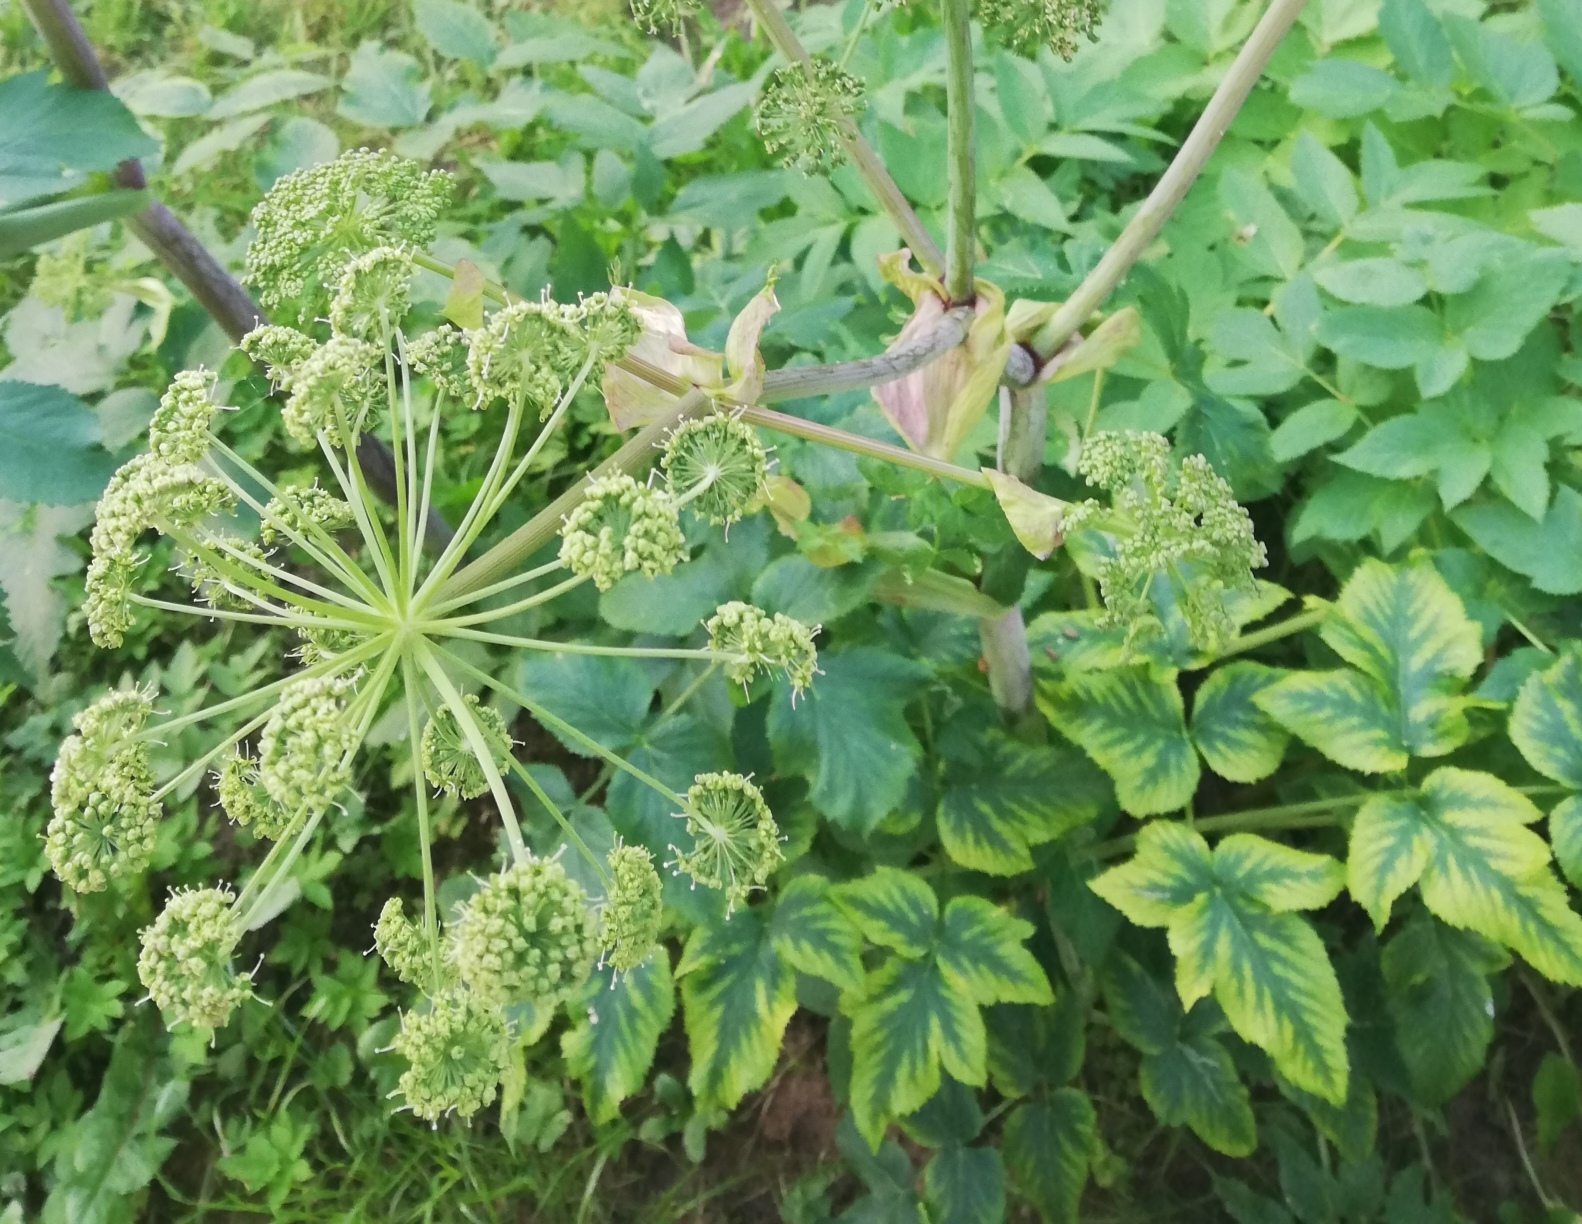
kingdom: Plantae
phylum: Tracheophyta
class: Magnoliopsida
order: Apiales
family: Apiaceae
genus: Angelica
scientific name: Angelica archangelica
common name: Garden angelica
